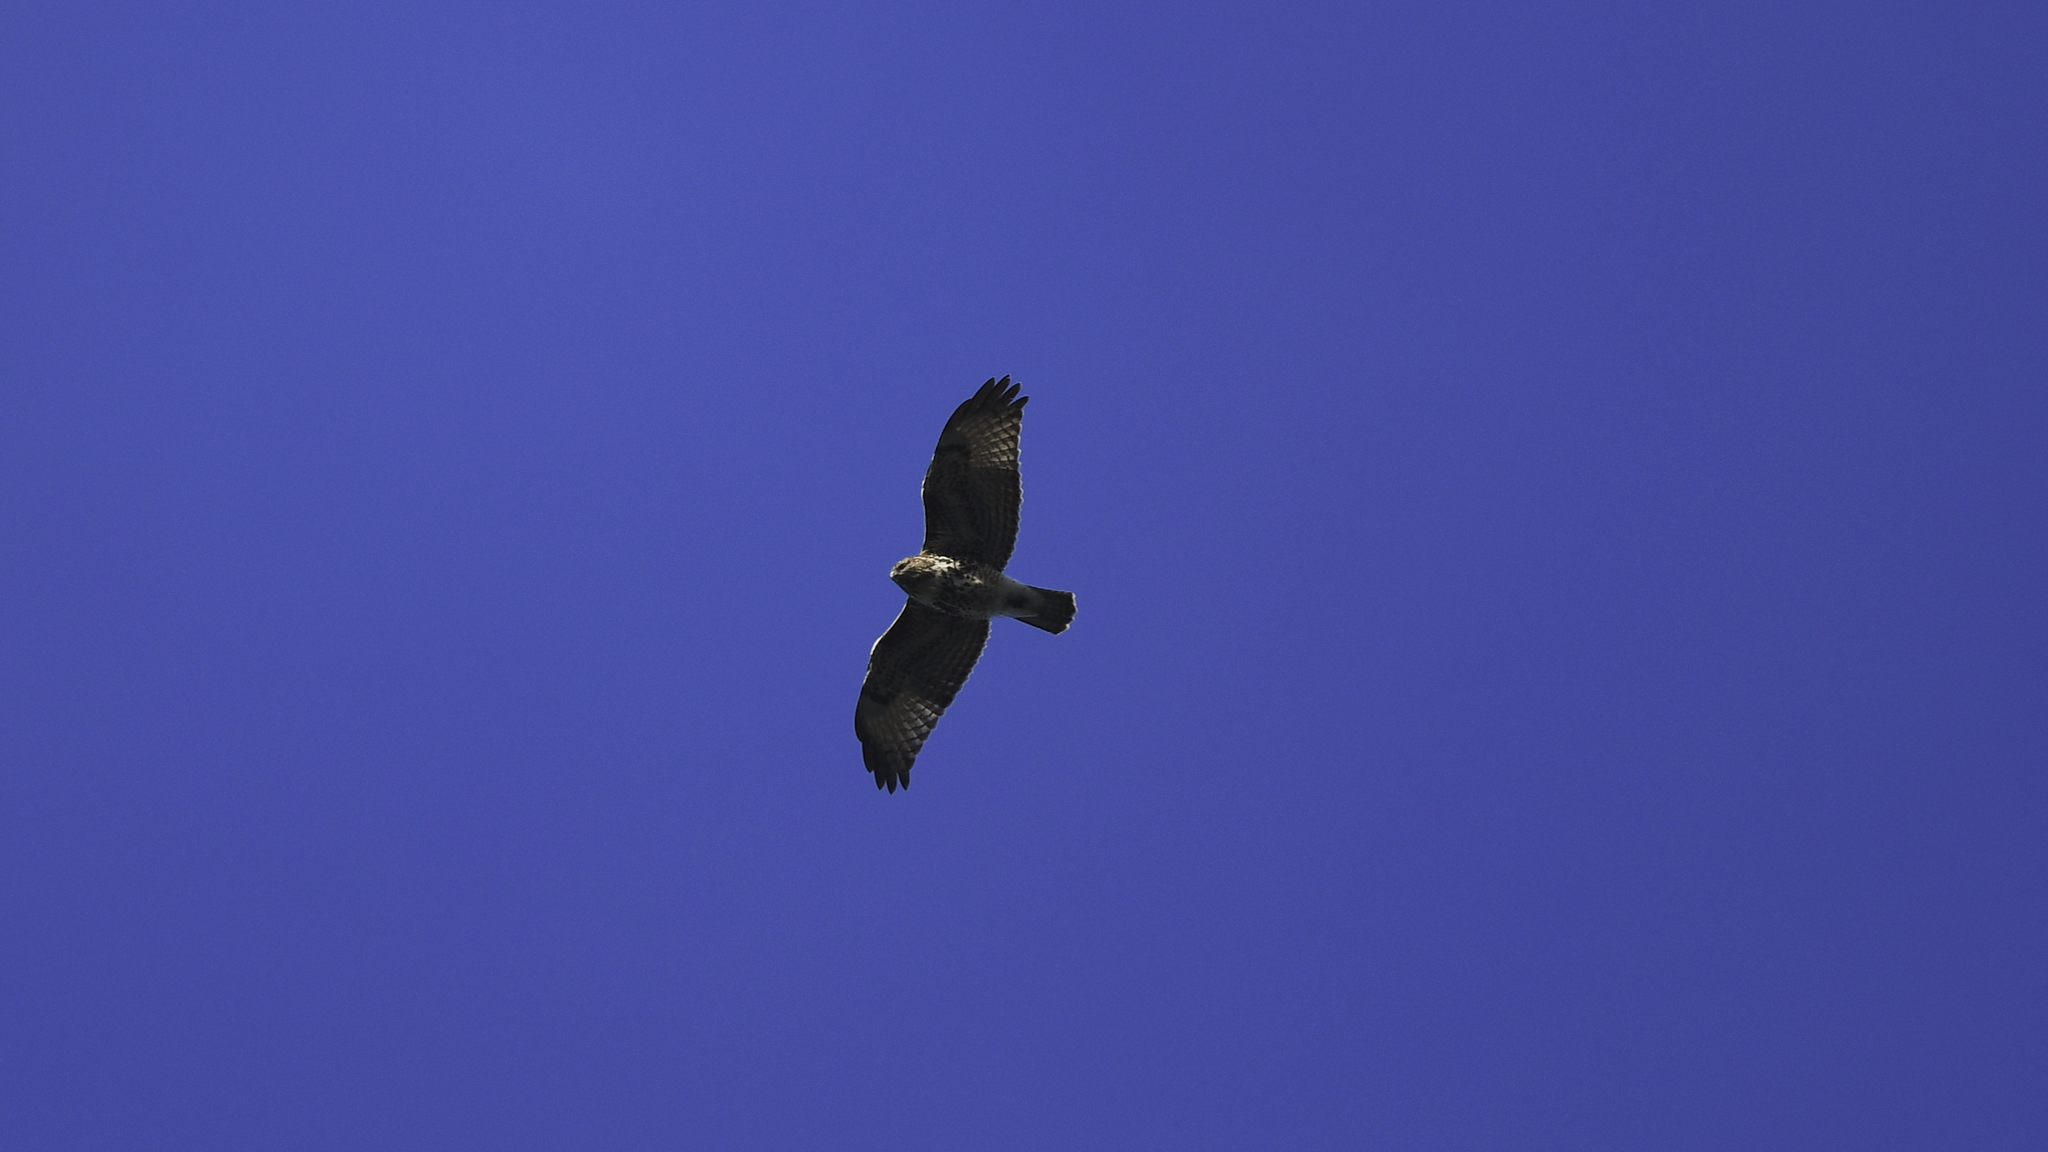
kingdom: Animalia
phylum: Chordata
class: Aves
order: Accipitriformes
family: Accipitridae
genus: Buteo
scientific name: Buteo jamaicensis
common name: Red-tailed hawk
